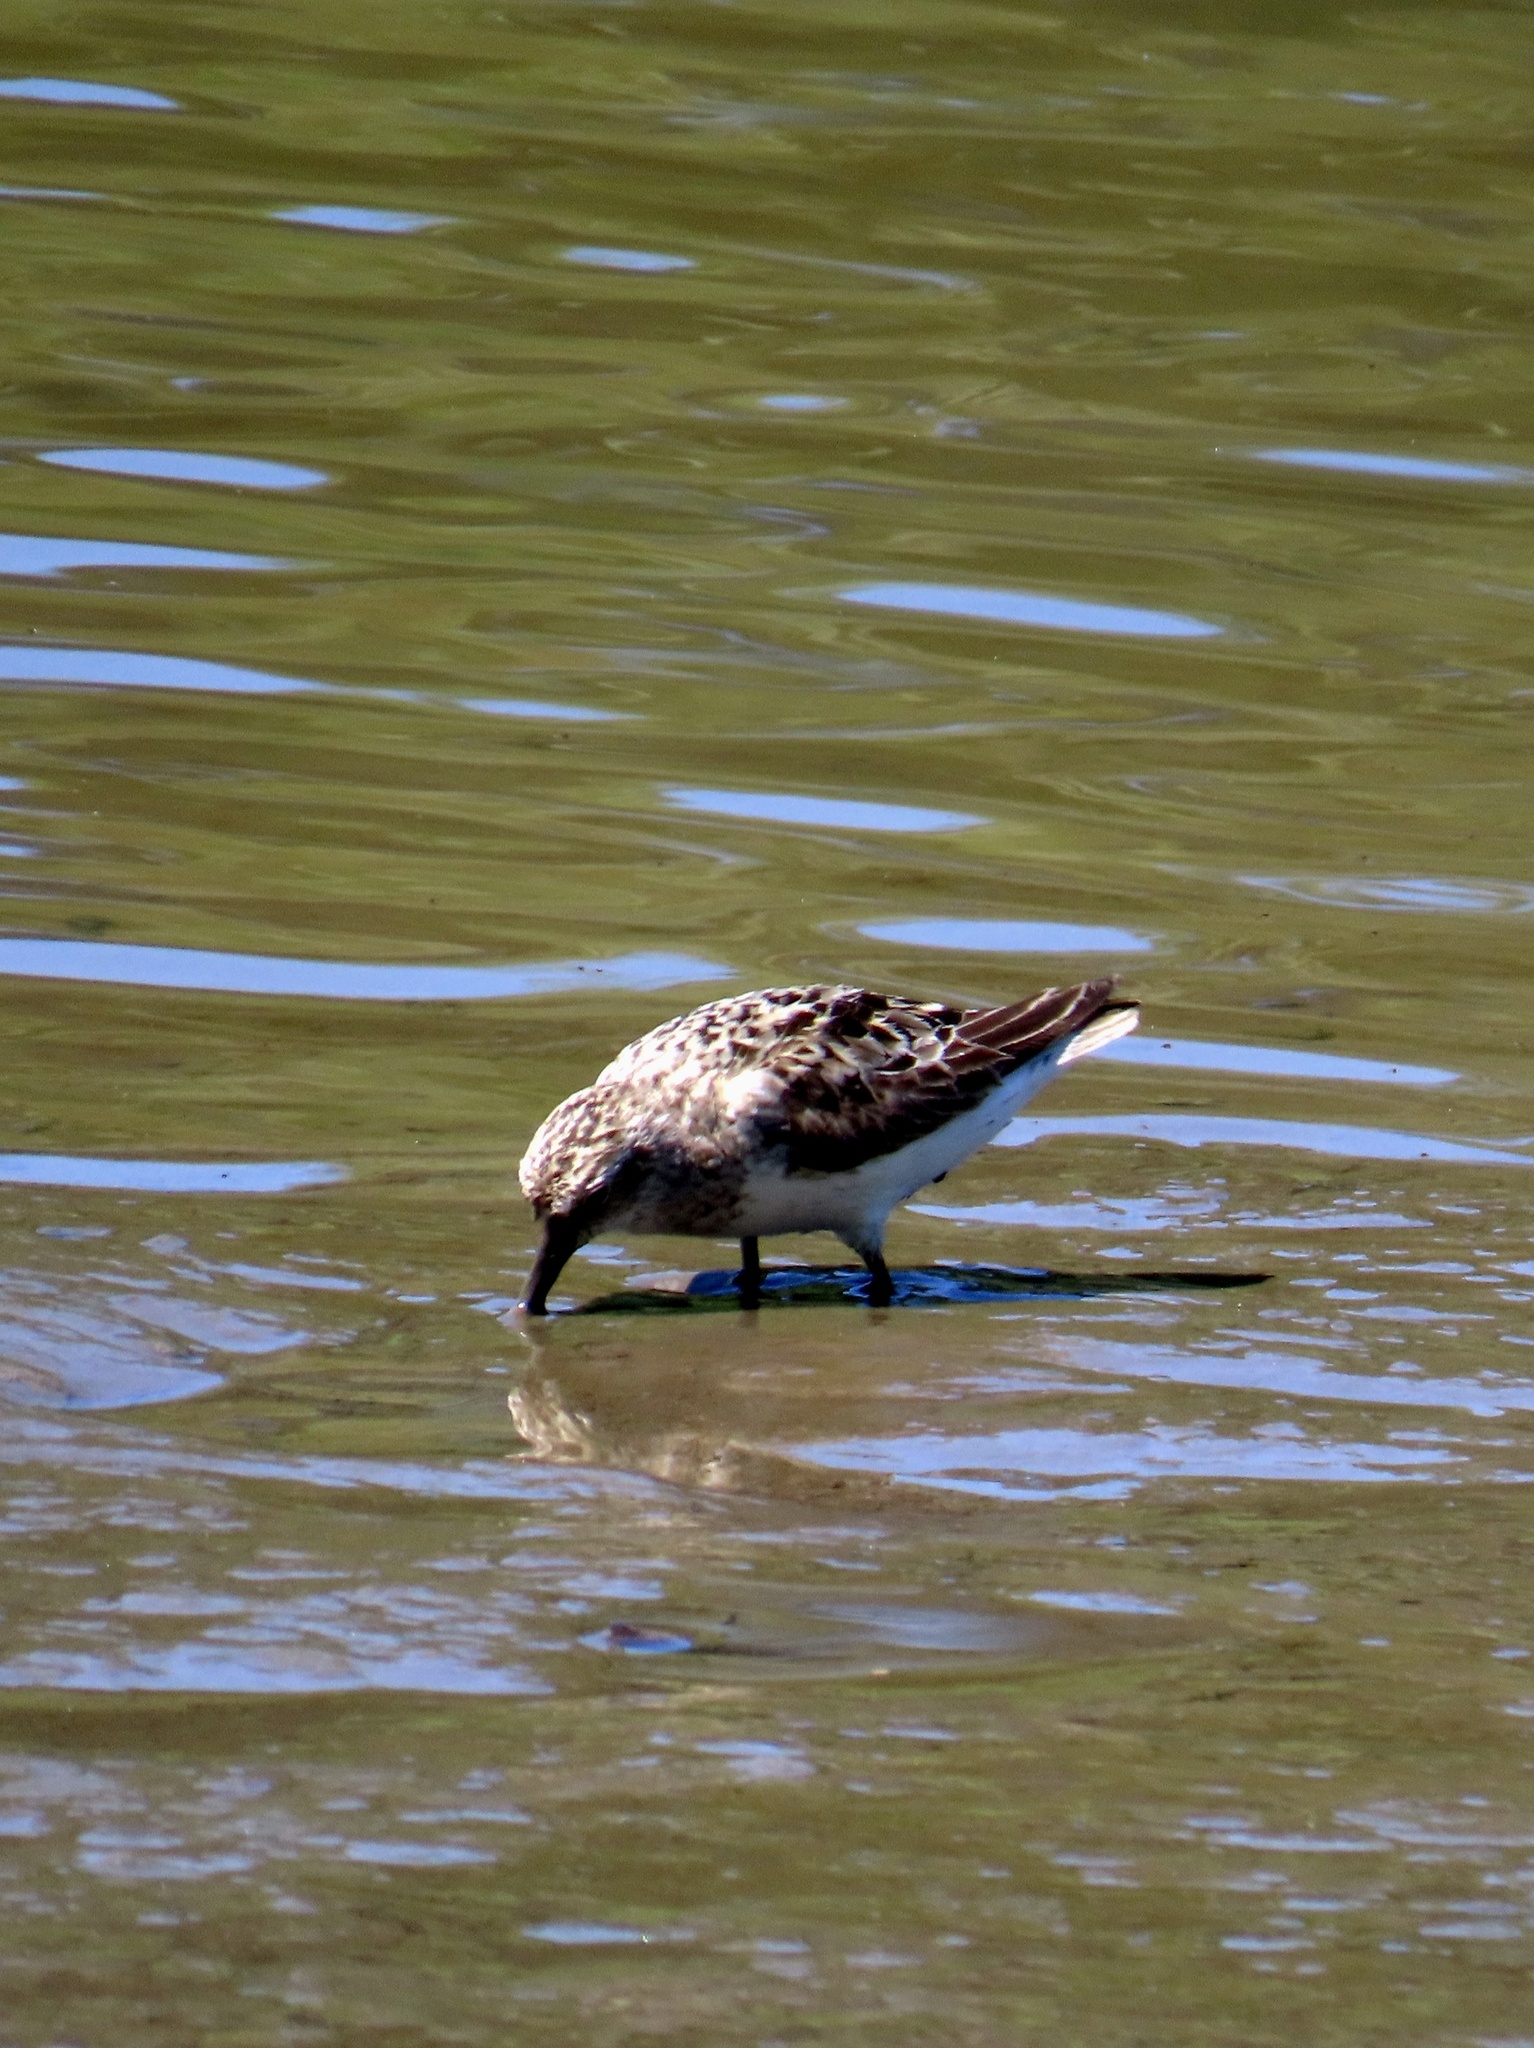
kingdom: Animalia
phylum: Chordata
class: Aves
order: Charadriiformes
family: Scolopacidae
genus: Calidris
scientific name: Calidris pusilla
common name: Semipalmated sandpiper
